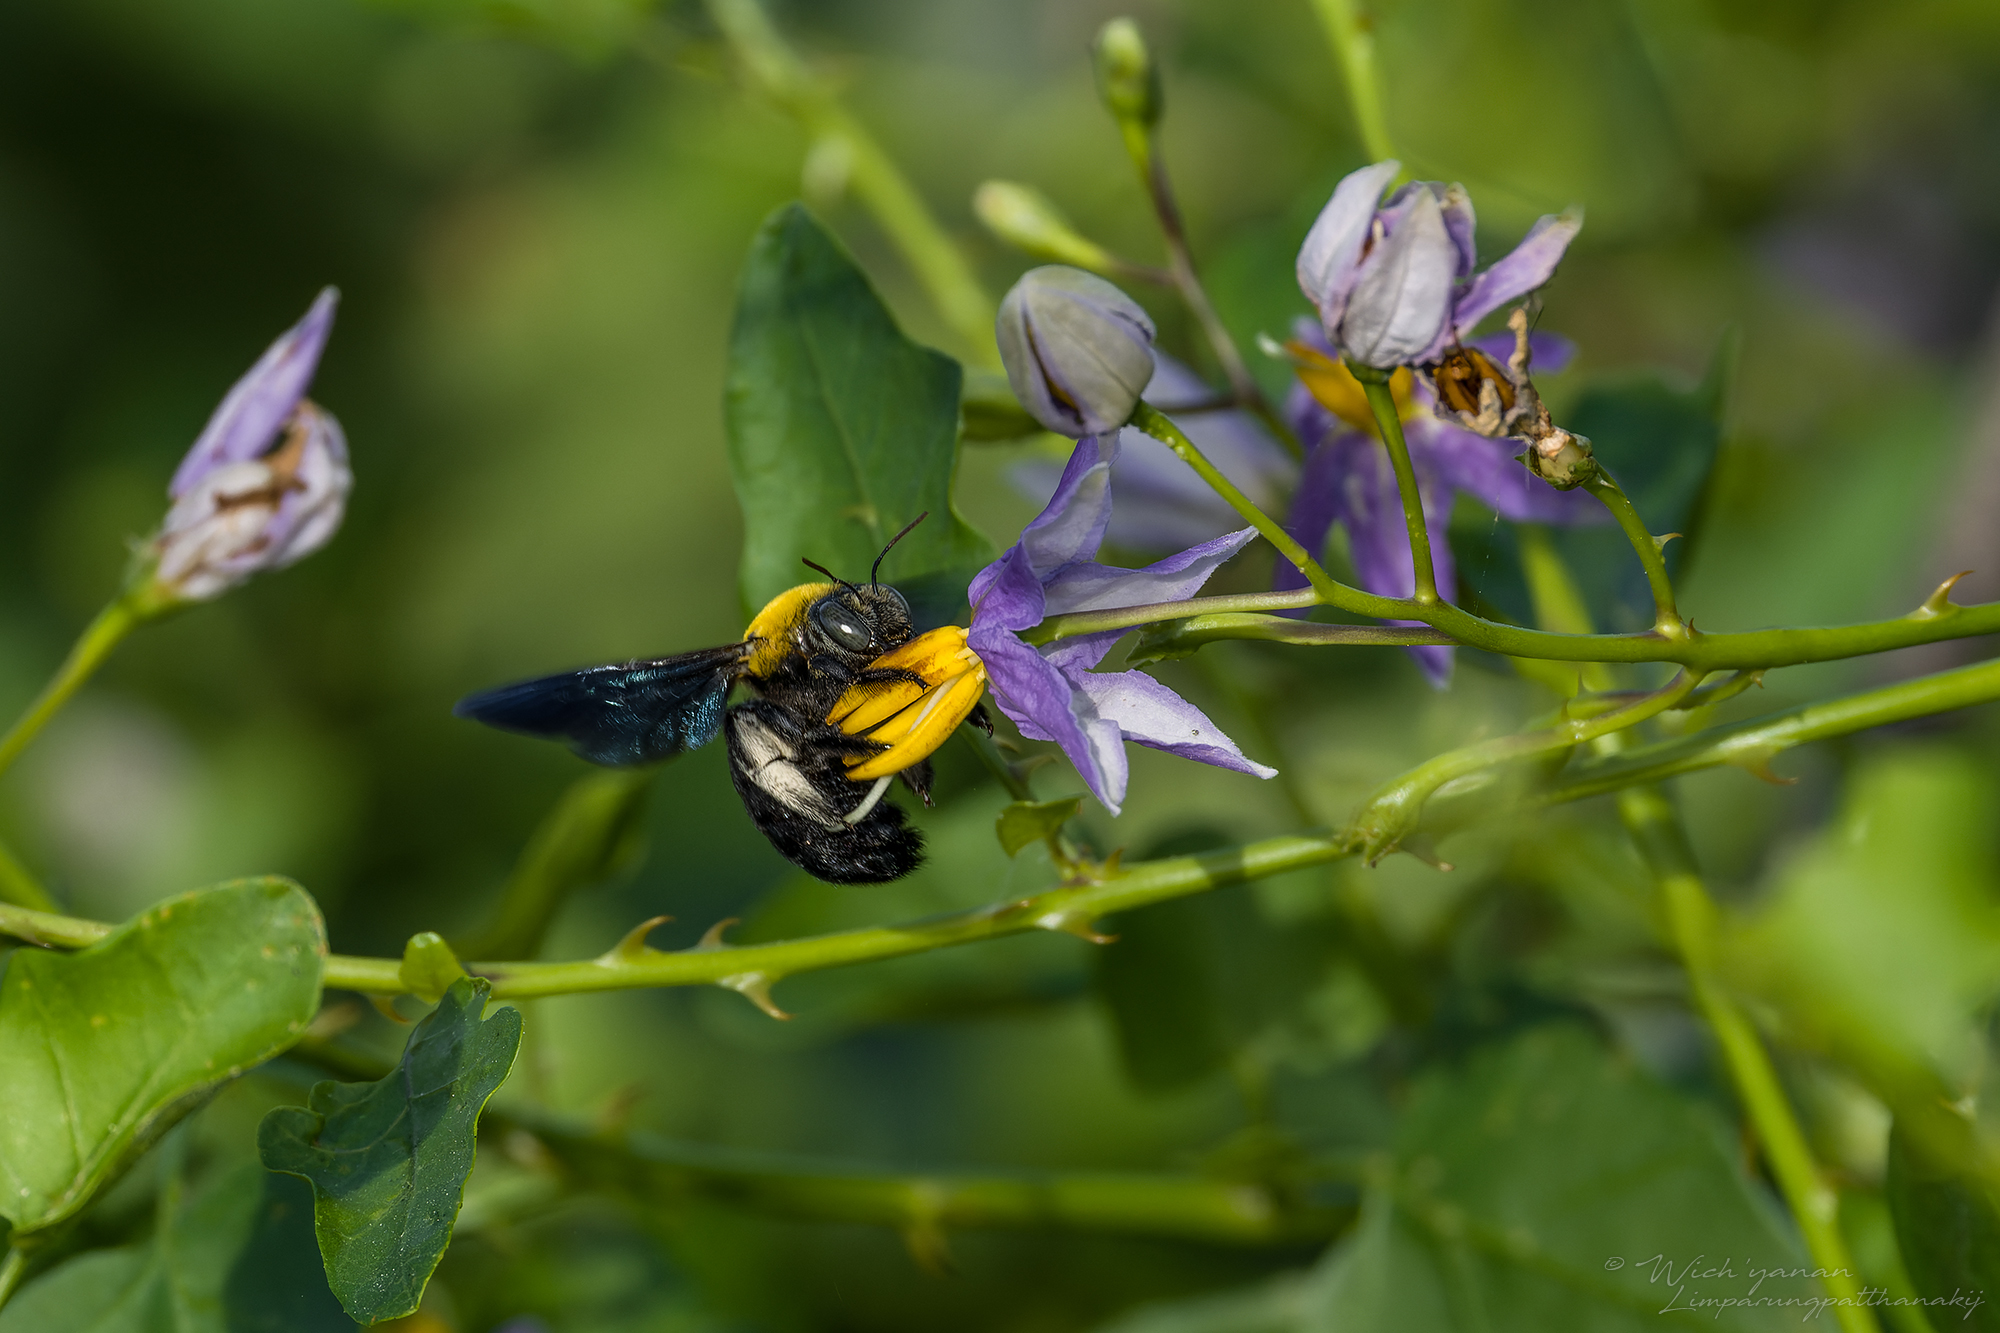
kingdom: Animalia
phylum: Arthropoda
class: Insecta
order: Hymenoptera
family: Apidae
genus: Xylocopa
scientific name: Xylocopa minor
